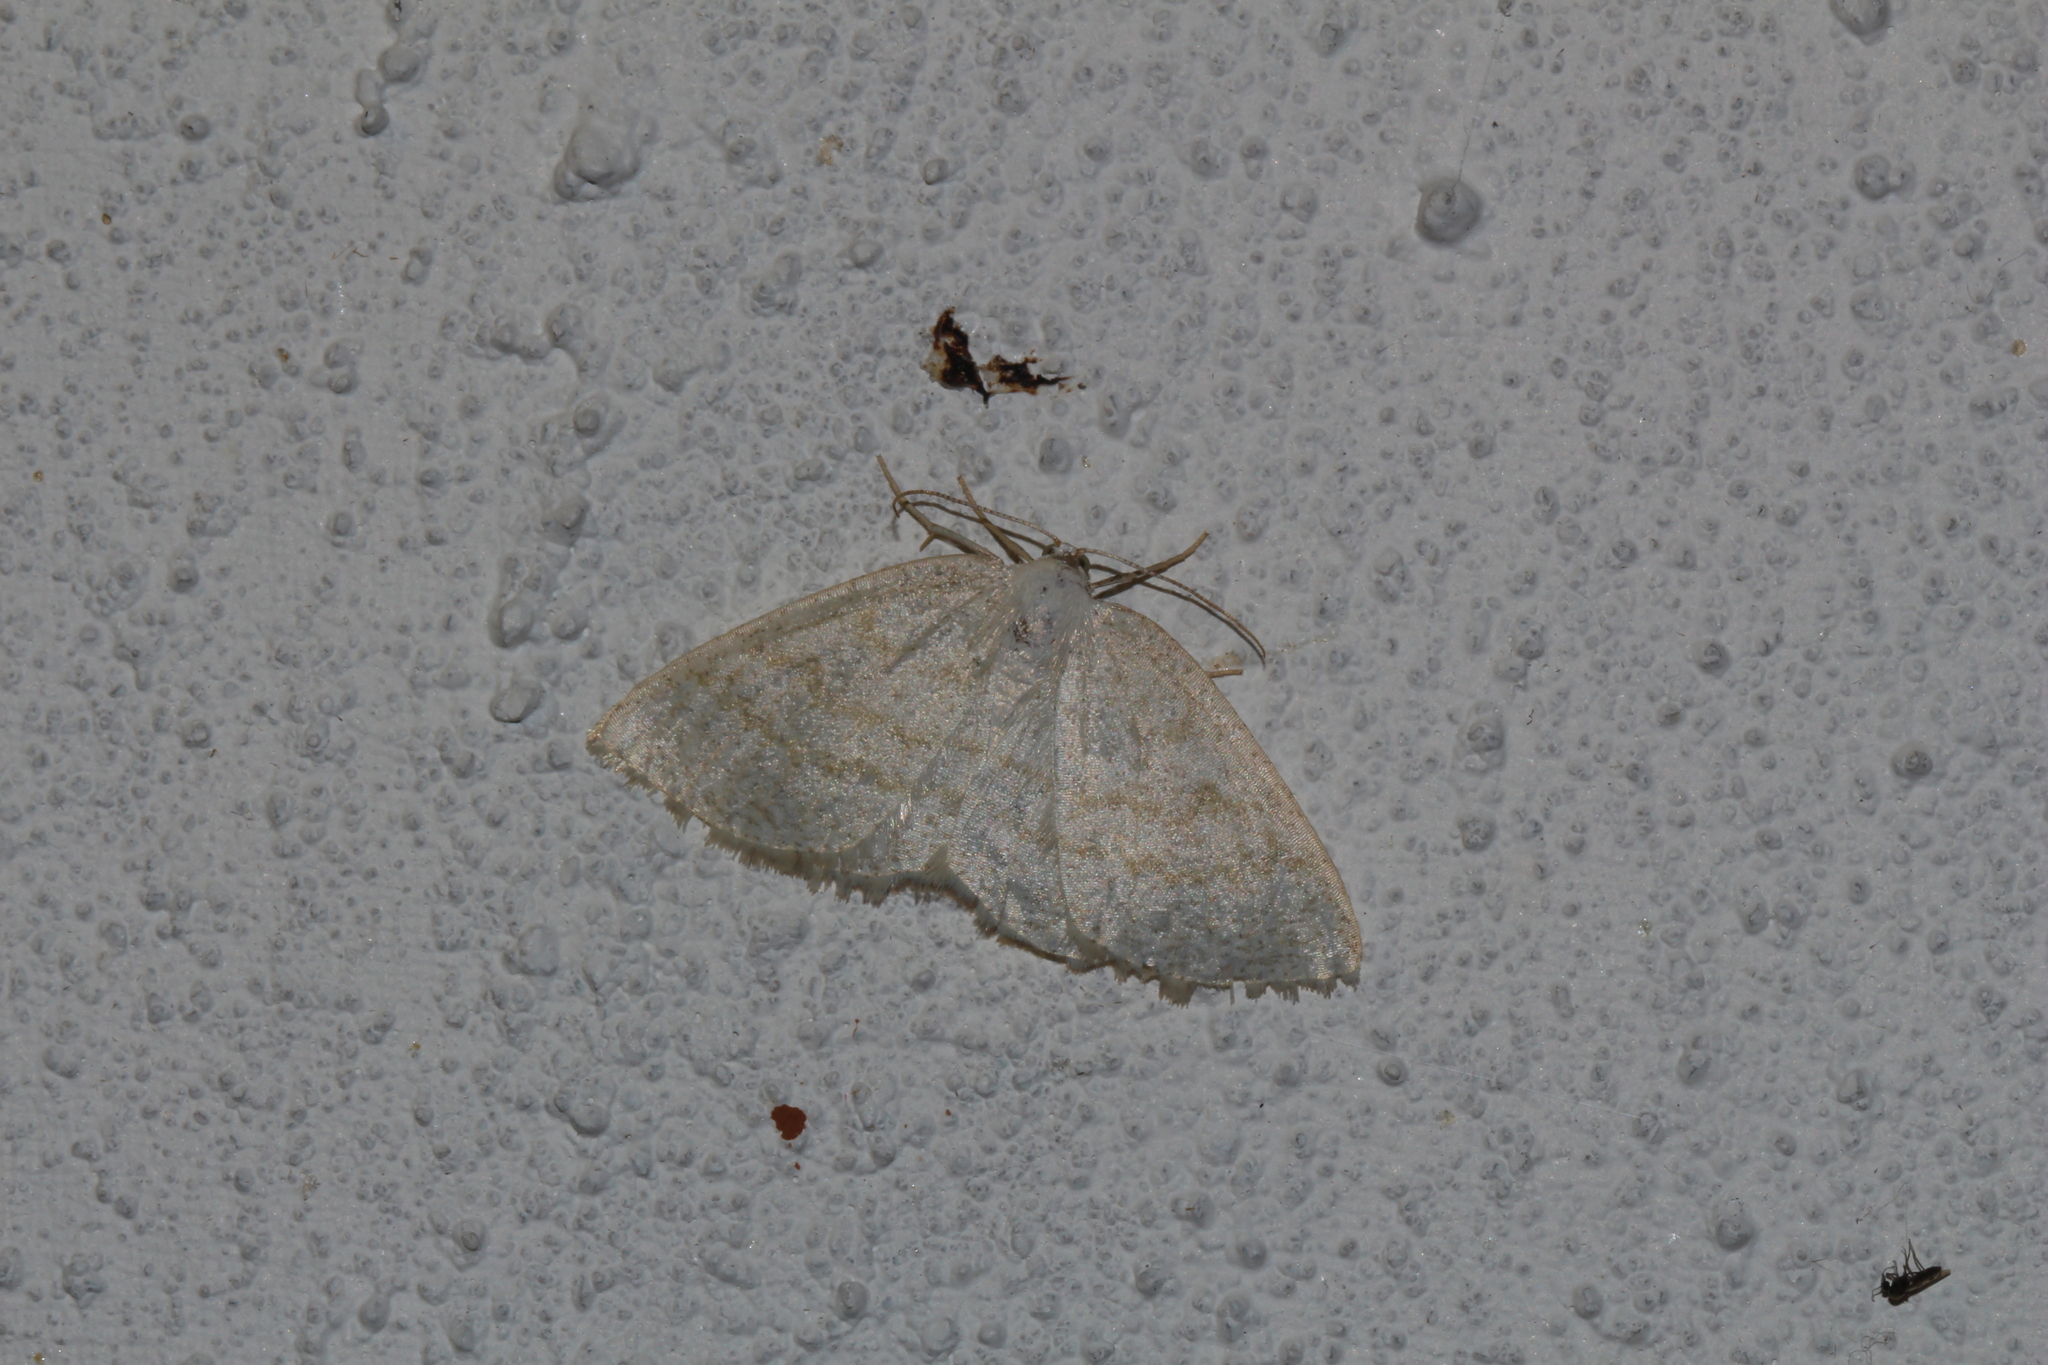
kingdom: Animalia
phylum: Arthropoda
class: Insecta
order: Lepidoptera
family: Geometridae
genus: Cabera
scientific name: Cabera exanthemata
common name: Common wave
